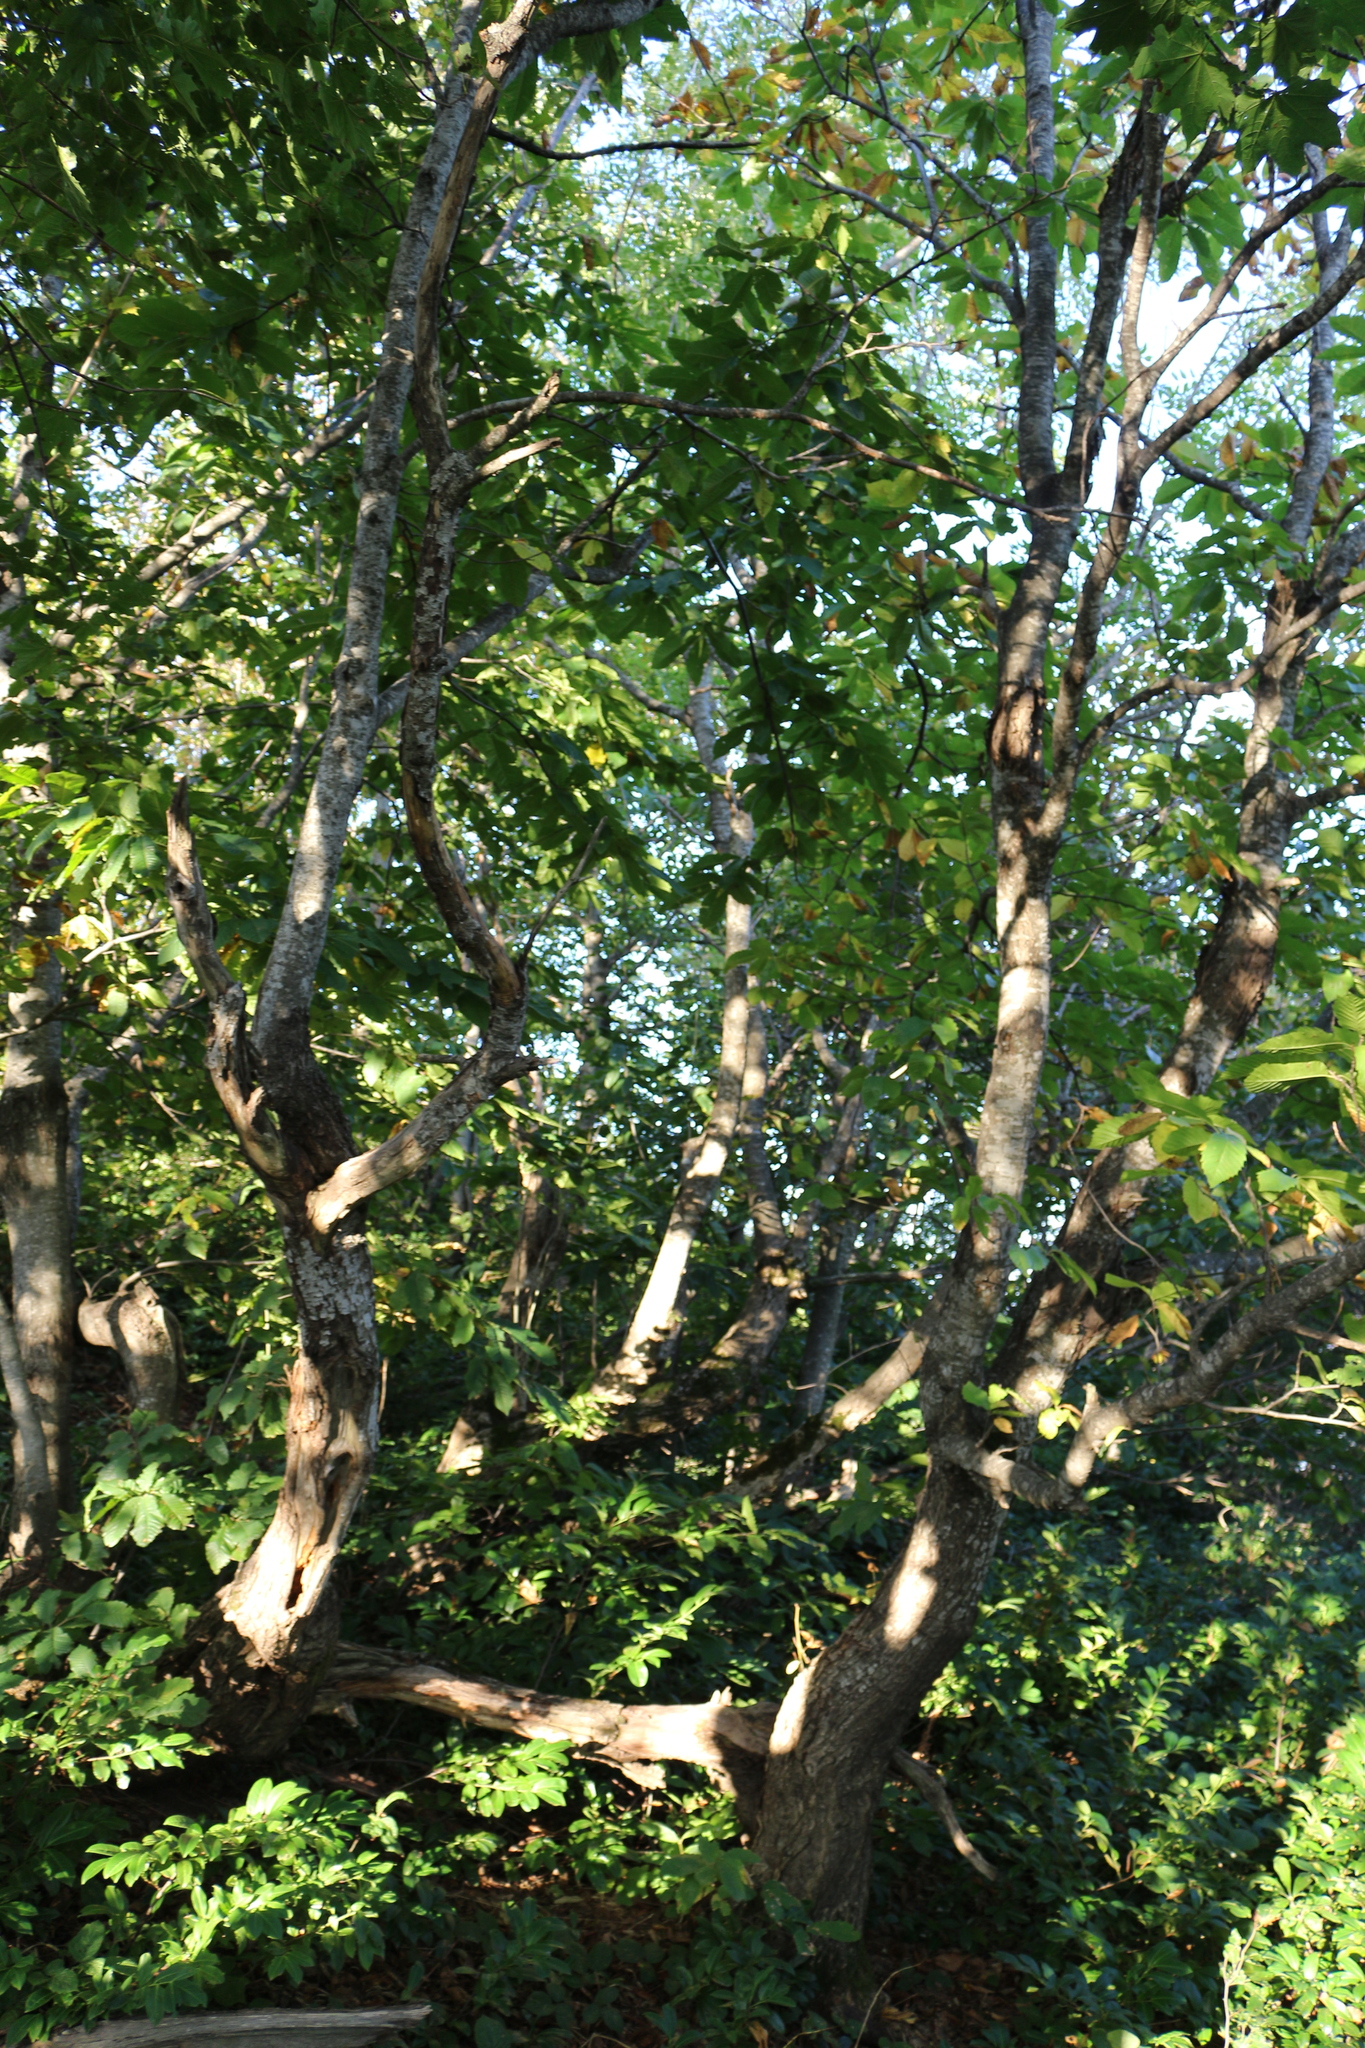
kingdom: Plantae
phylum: Tracheophyta
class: Magnoliopsida
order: Fagales
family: Fagaceae
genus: Castanea
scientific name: Castanea sativa
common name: Sweet chestnut
